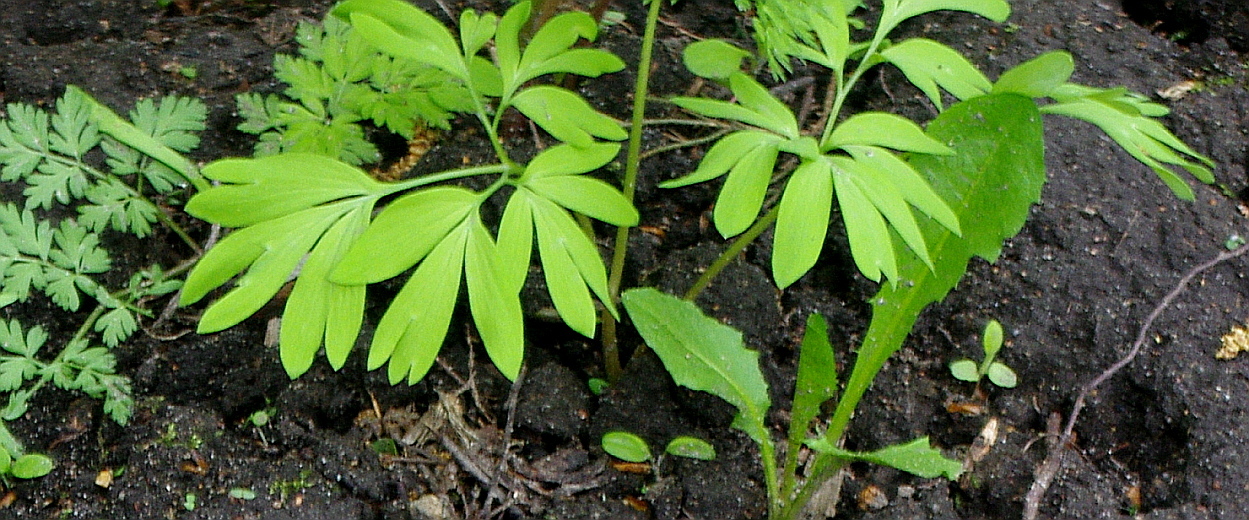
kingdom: Plantae
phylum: Tracheophyta
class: Magnoliopsida
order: Ranunculales
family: Papaveraceae
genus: Corydalis
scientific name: Corydalis solida
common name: Bird-in-a-bush
